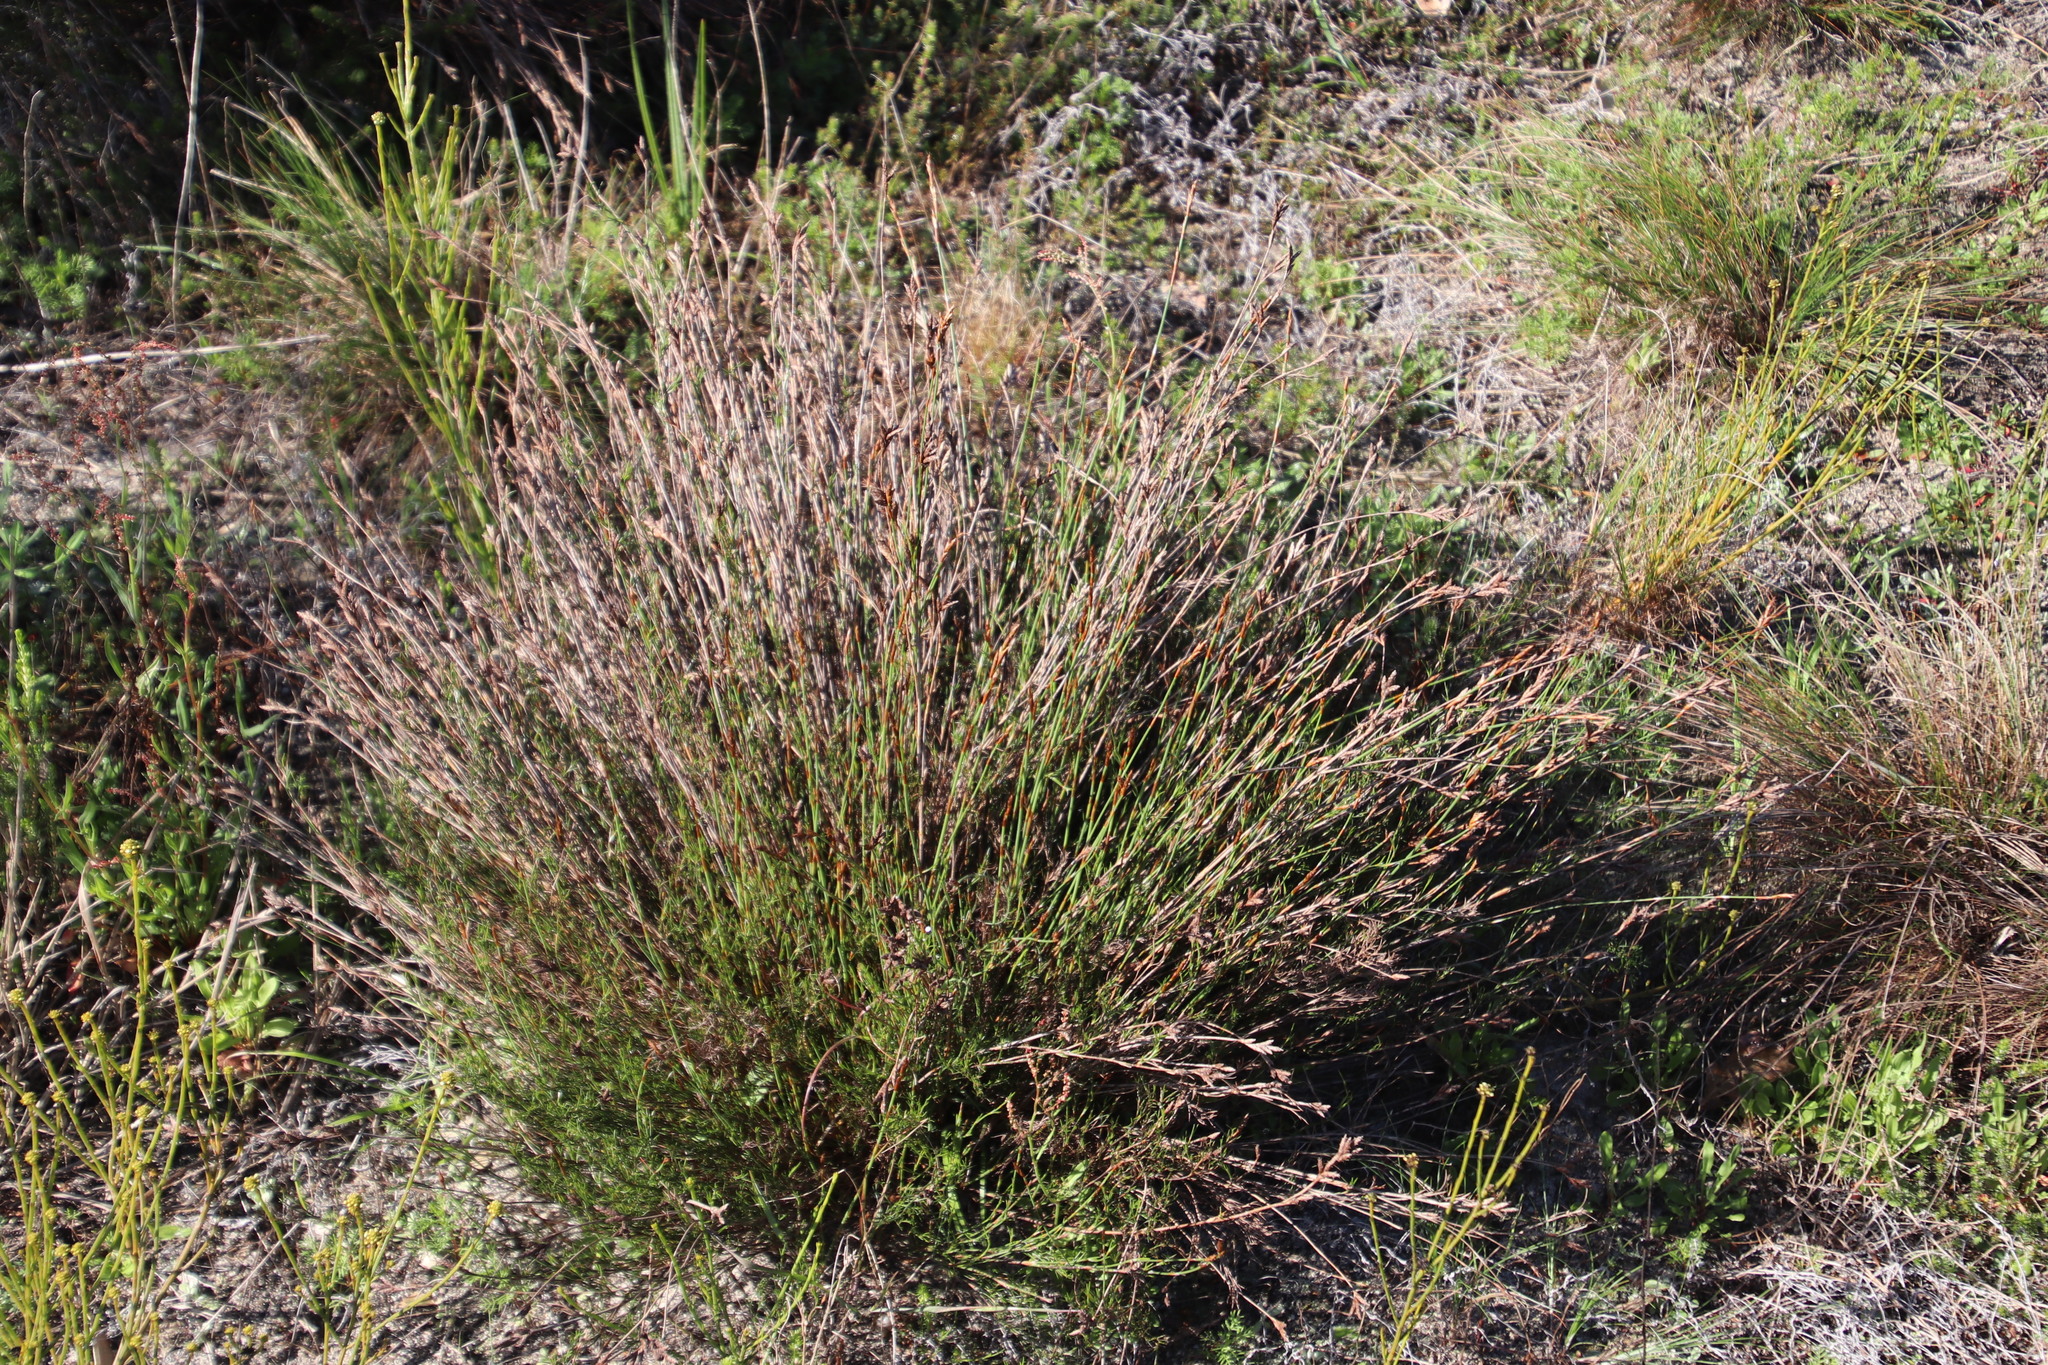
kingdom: Plantae
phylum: Tracheophyta
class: Liliopsida
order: Poales
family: Restionaceae
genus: Restio
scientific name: Restio capensis
